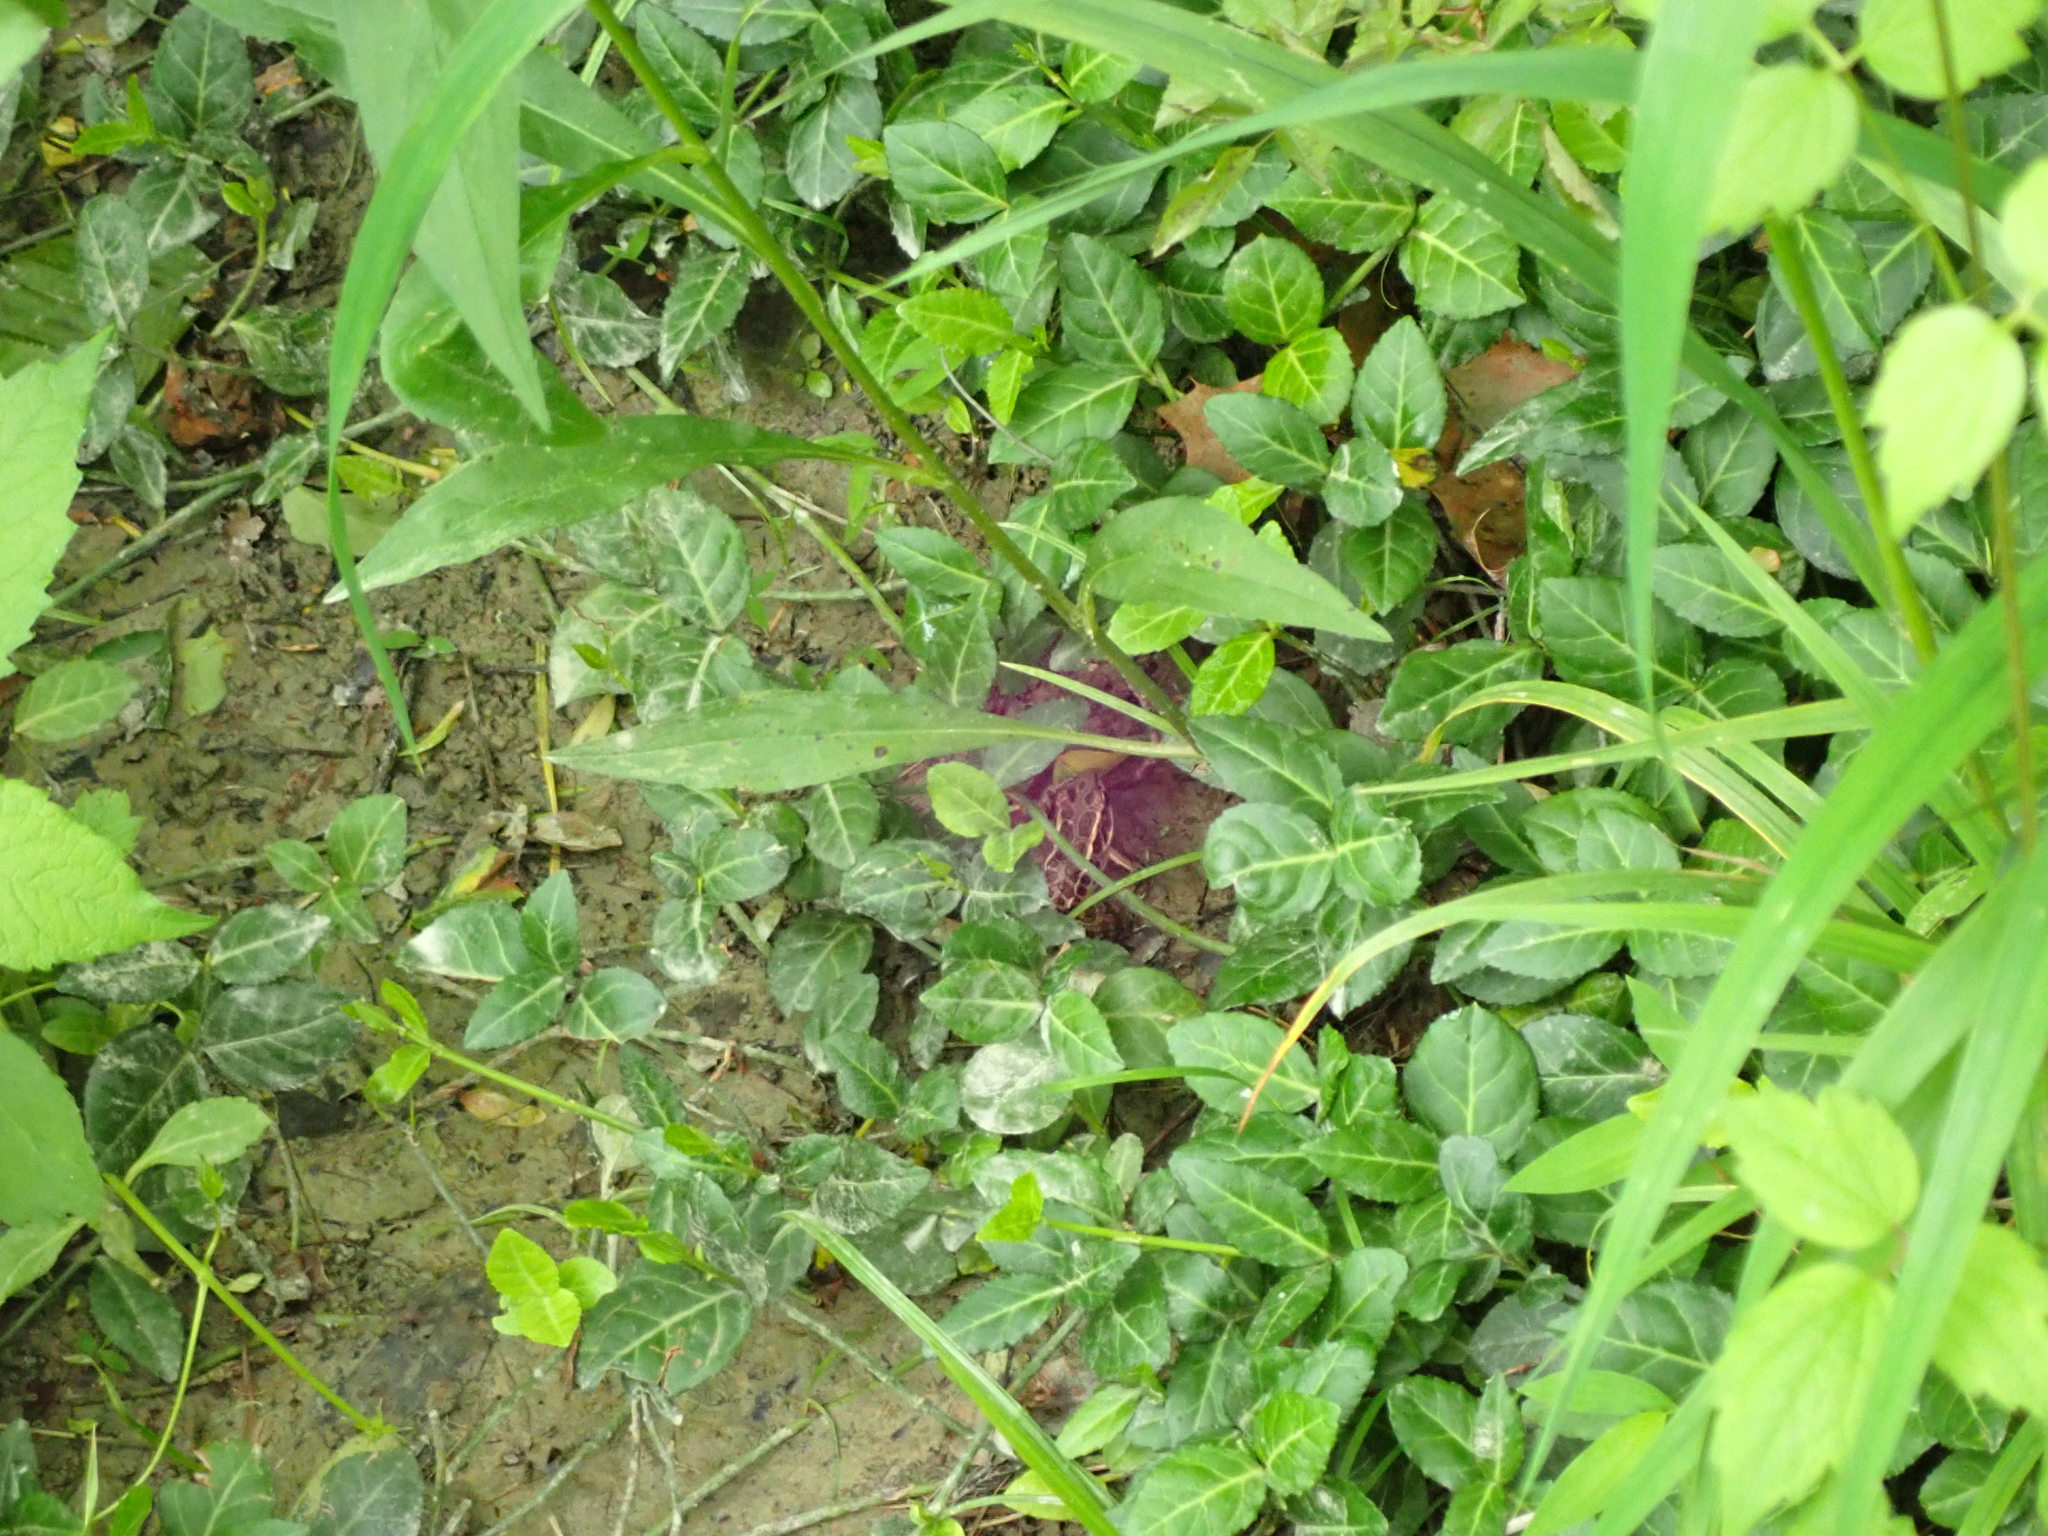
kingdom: Animalia
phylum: Chordata
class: Amphibia
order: Anura
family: Ranidae
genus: Lithobates
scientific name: Lithobates palustris
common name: Pickerel frog
